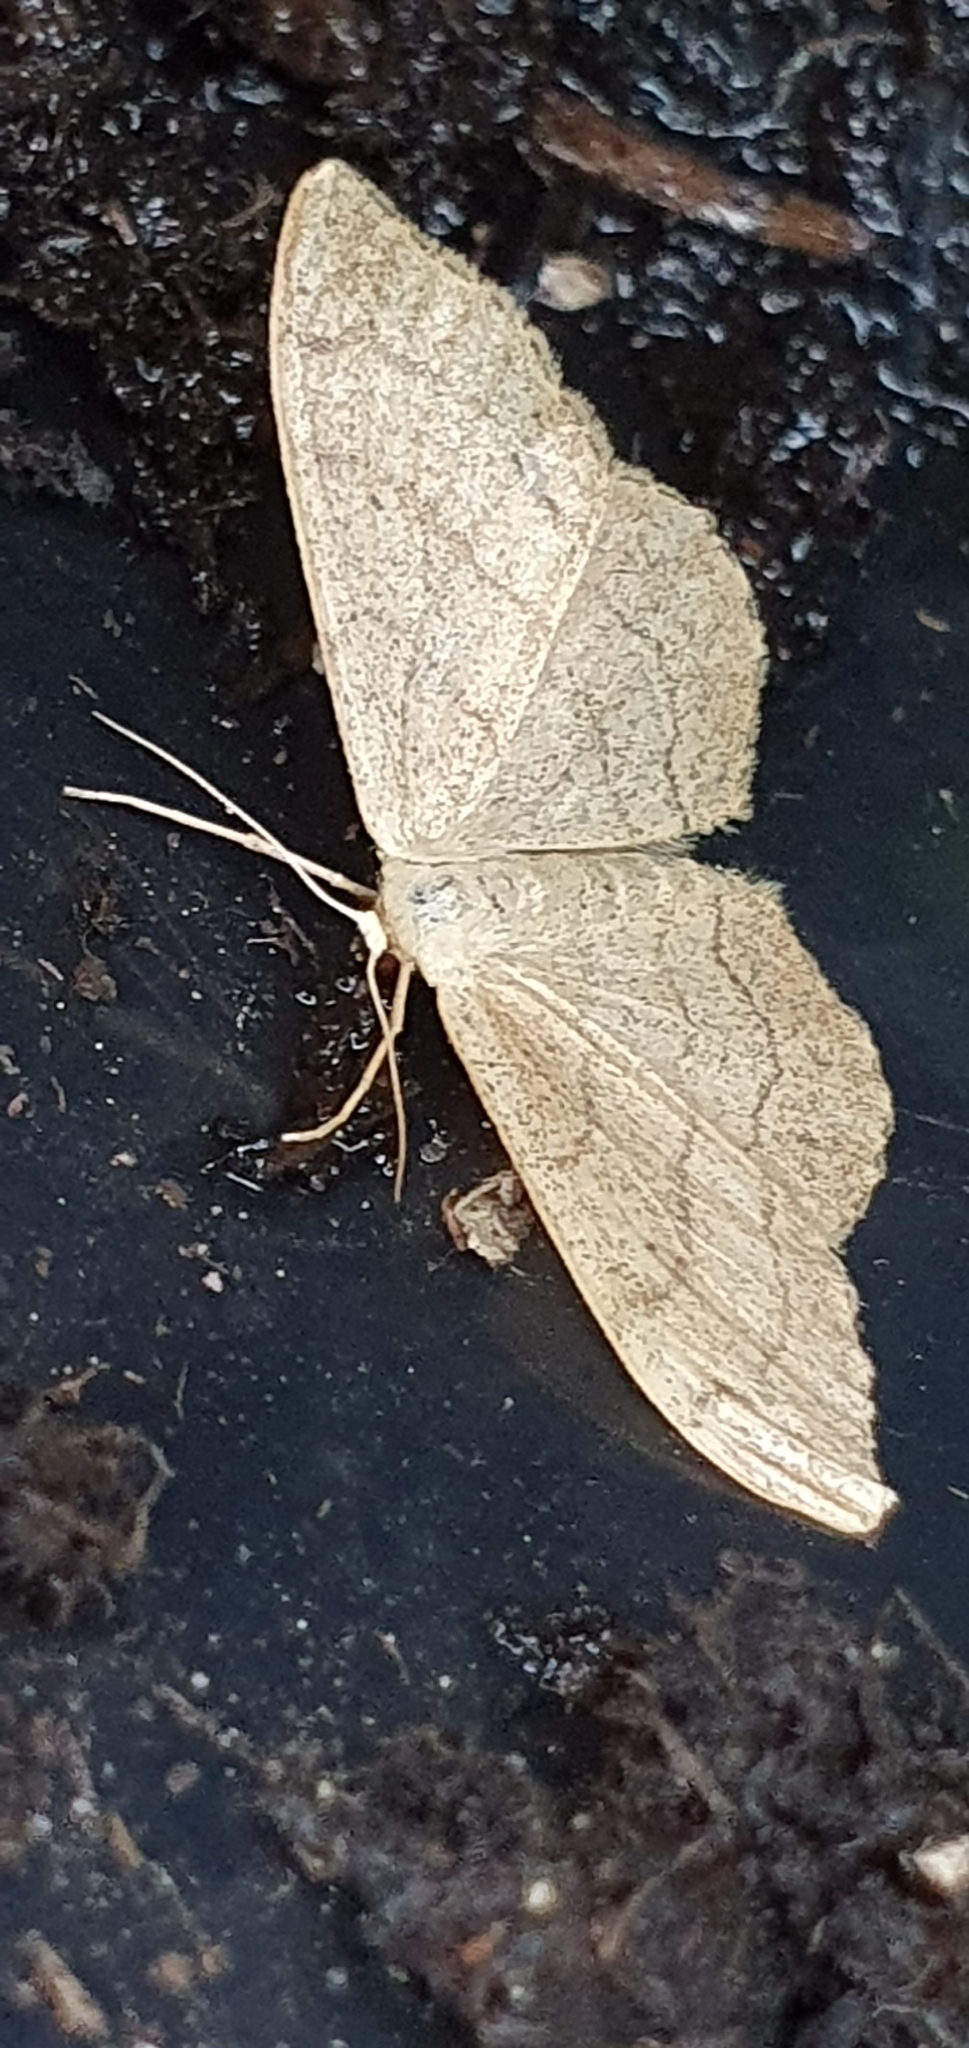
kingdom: Animalia
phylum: Arthropoda
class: Insecta
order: Lepidoptera
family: Geometridae
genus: Idaea
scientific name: Idaea aversata
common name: Riband wave
